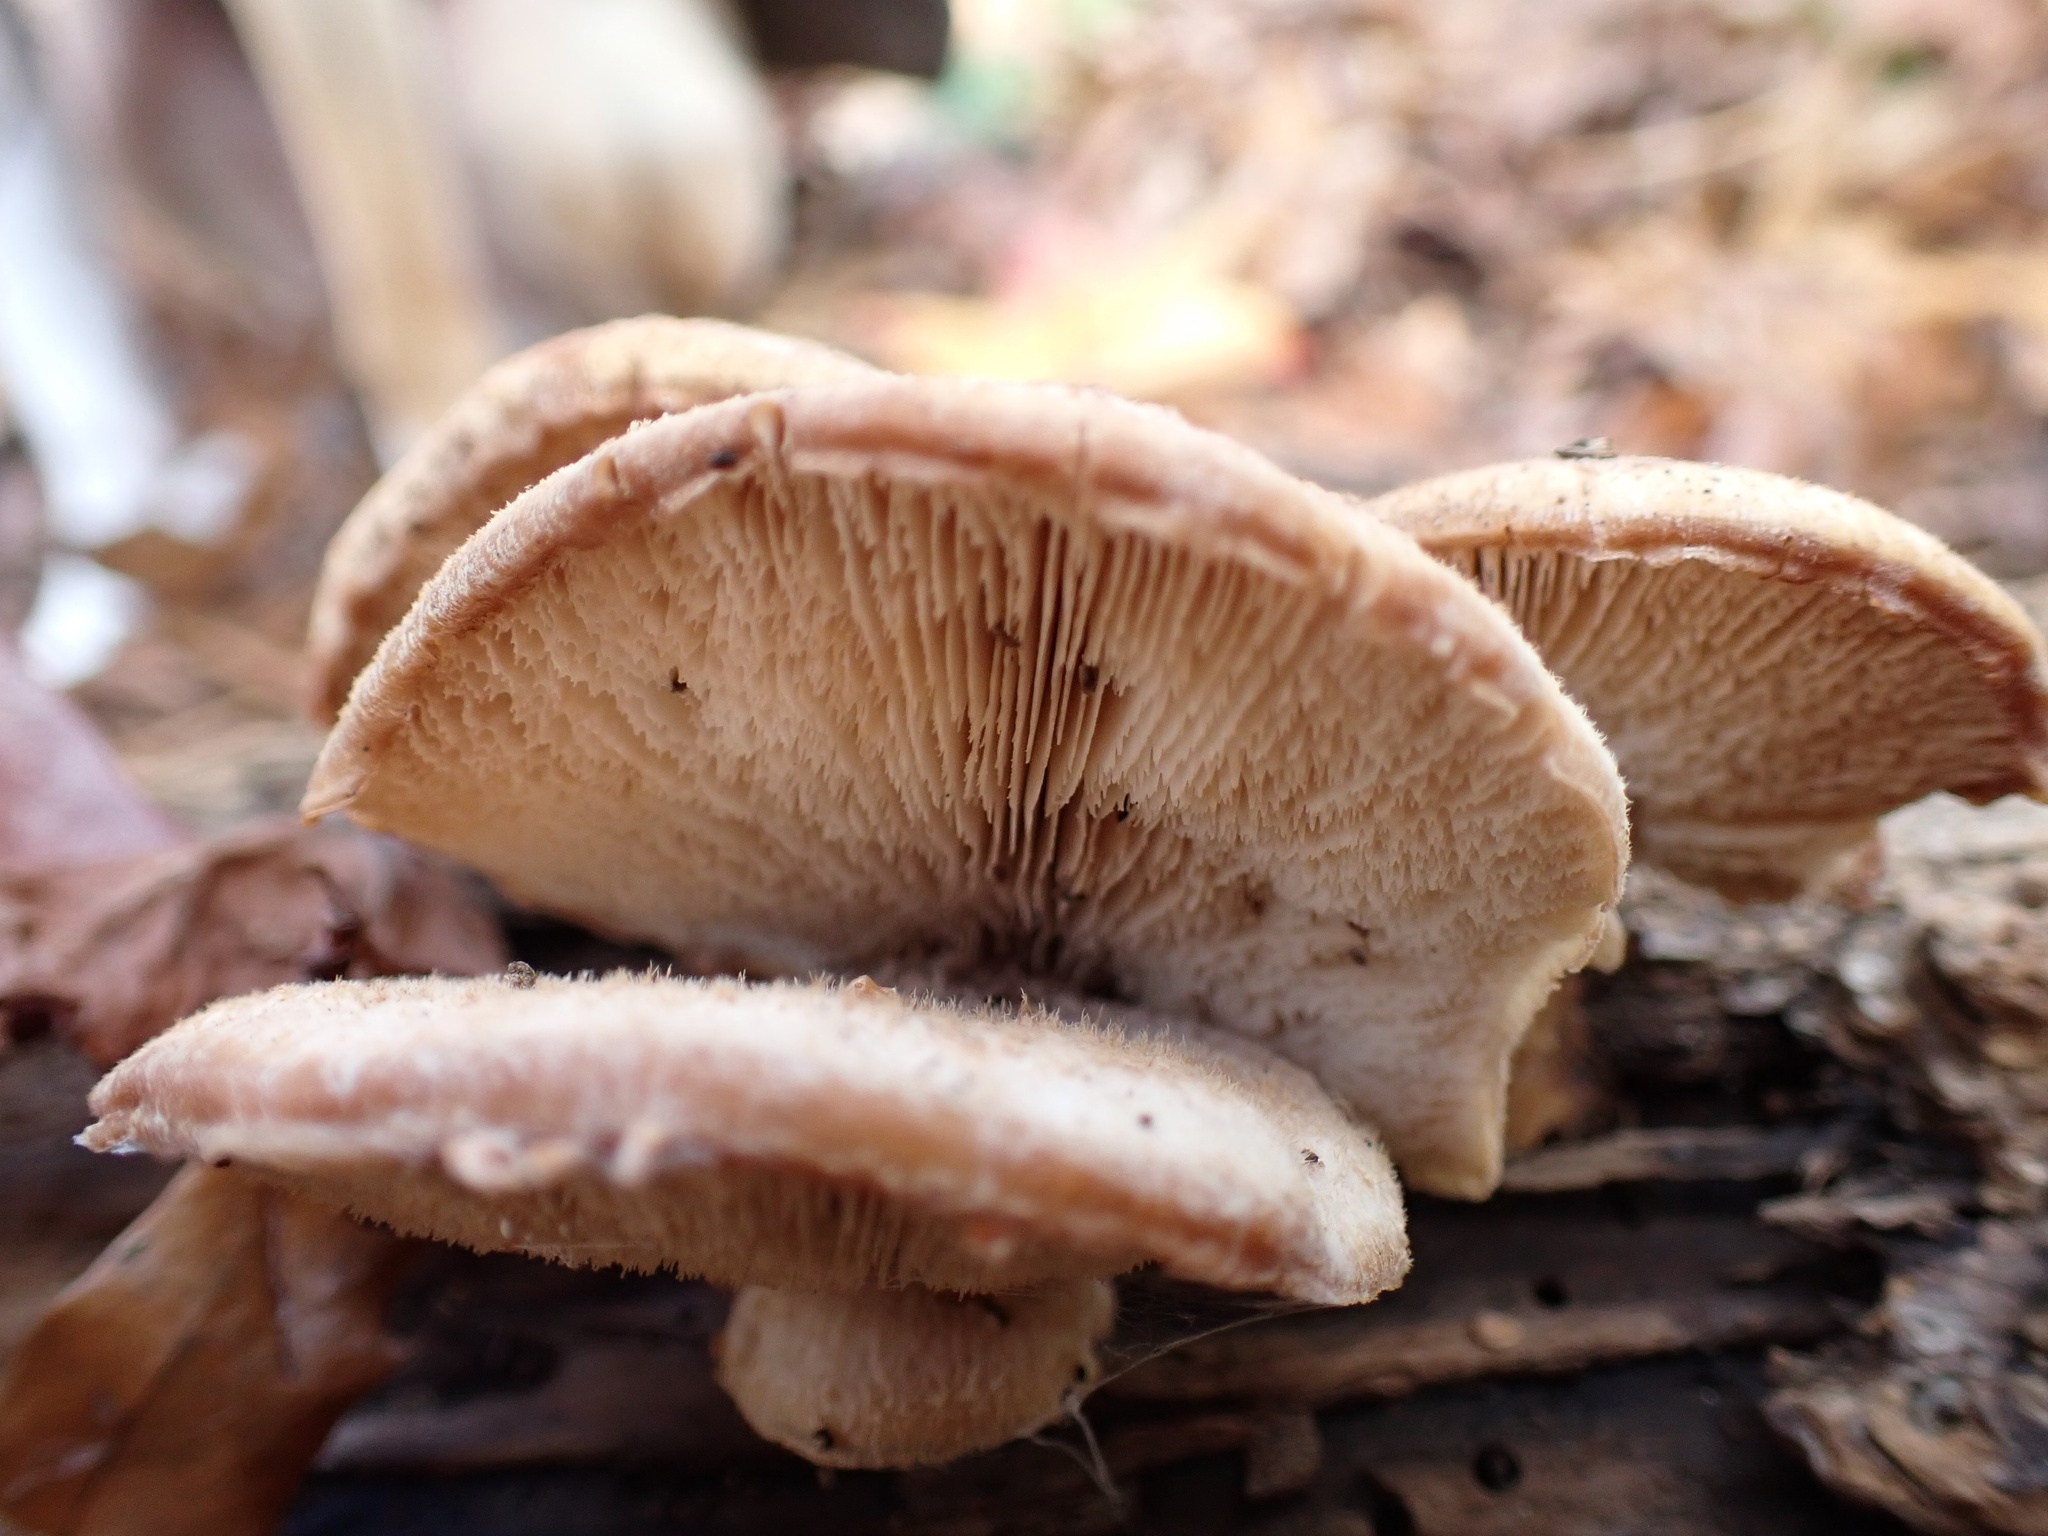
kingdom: Fungi
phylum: Basidiomycota
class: Agaricomycetes
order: Russulales
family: Auriscalpiaceae
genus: Lentinellus
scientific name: Lentinellus ursinus
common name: Bear lentinus
